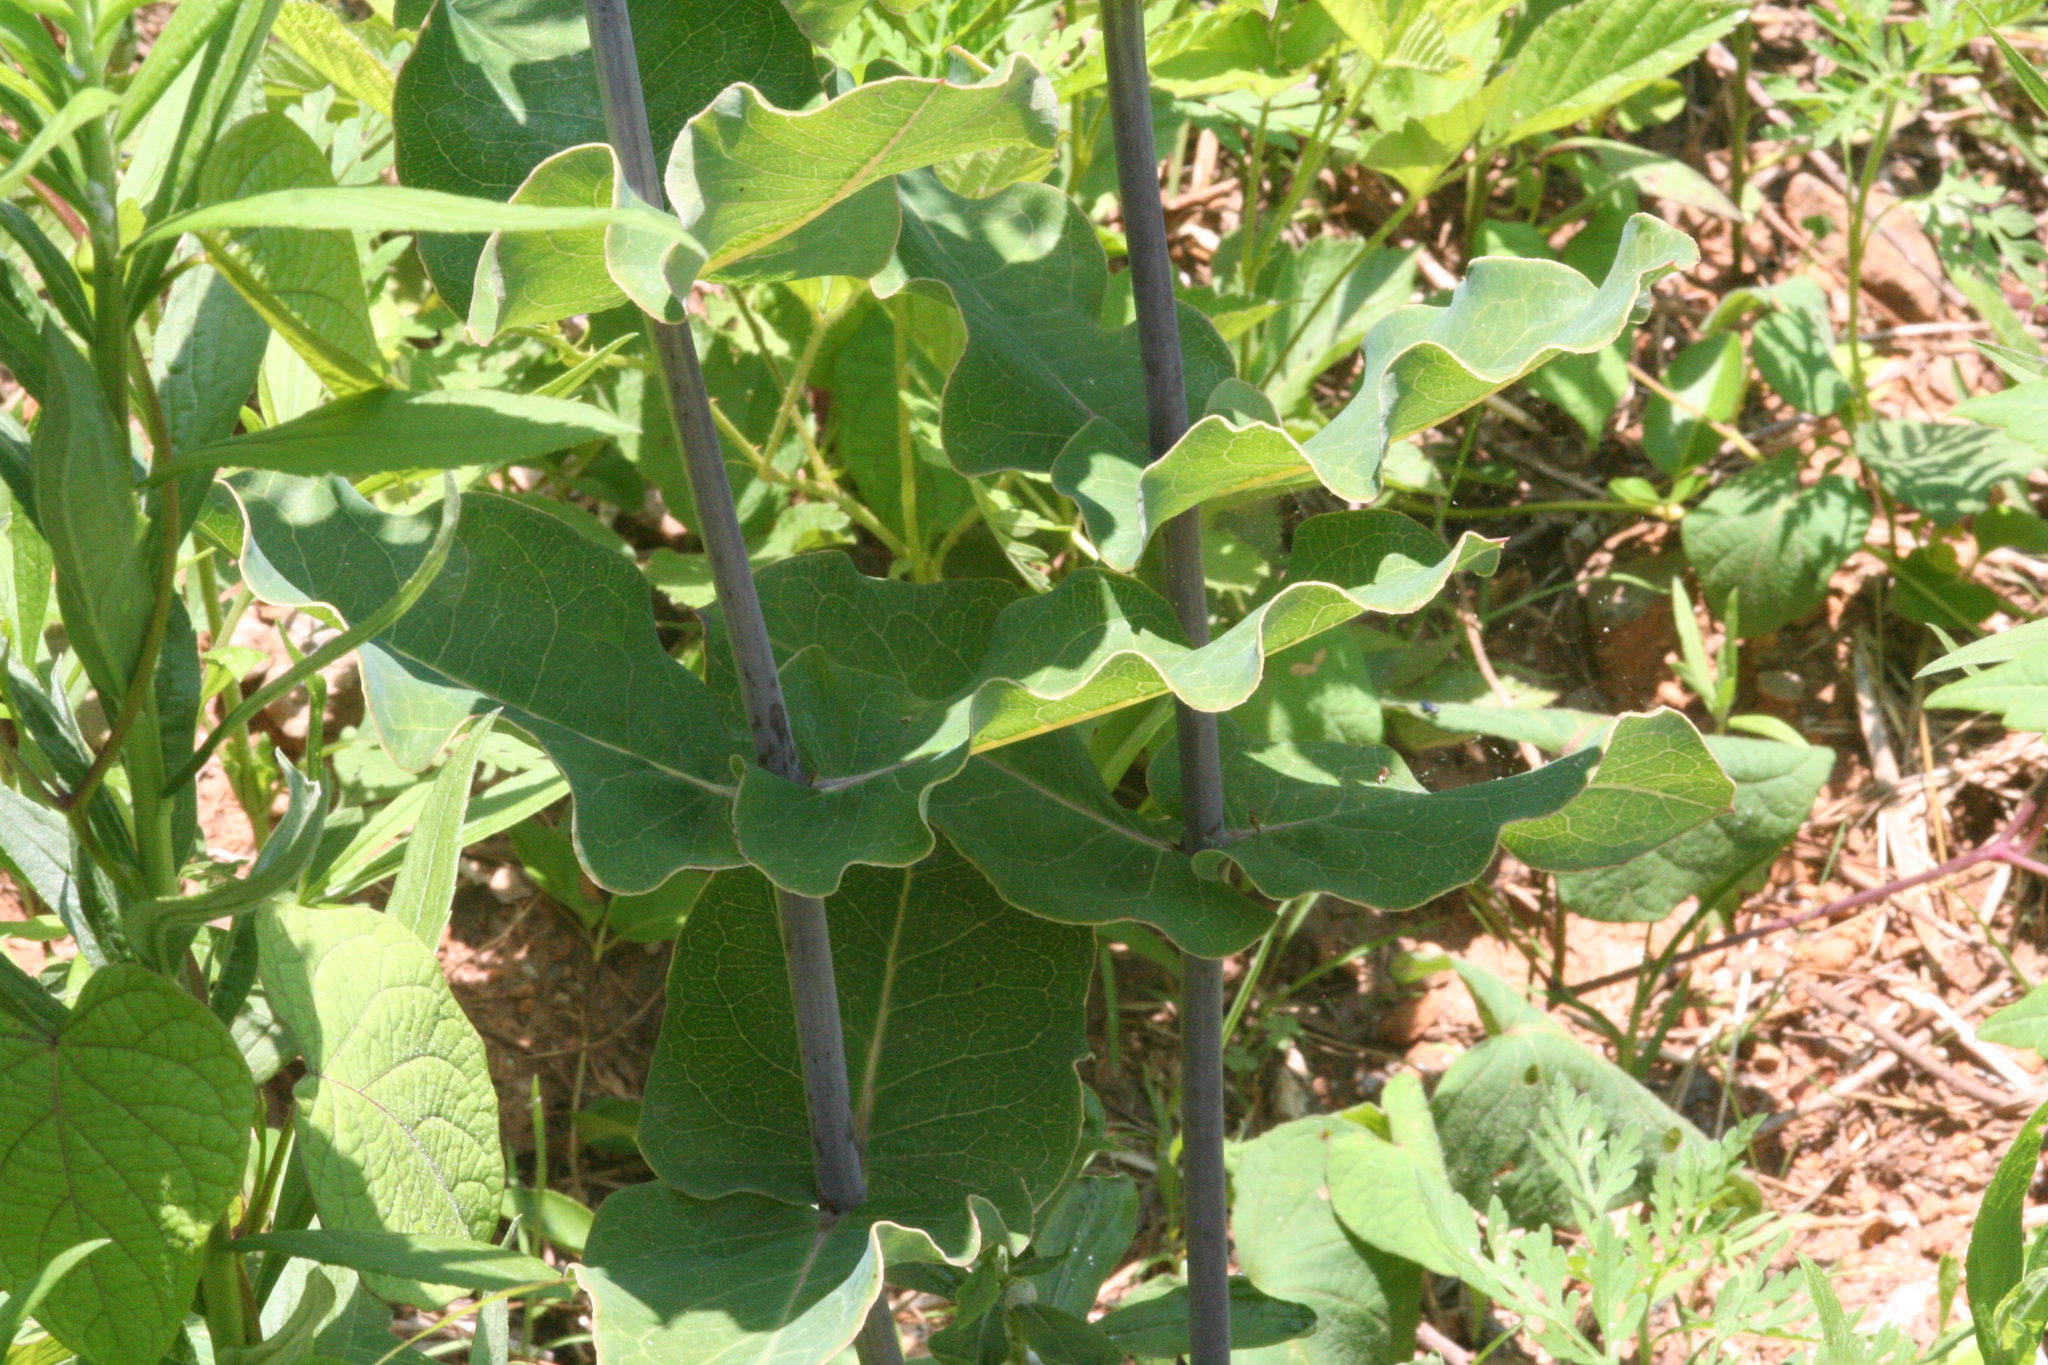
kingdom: Plantae
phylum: Tracheophyta
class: Magnoliopsida
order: Gentianales
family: Apocynaceae
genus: Asclepias
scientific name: Asclepias amplexicaulis
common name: Blunt-leaf milkweed
